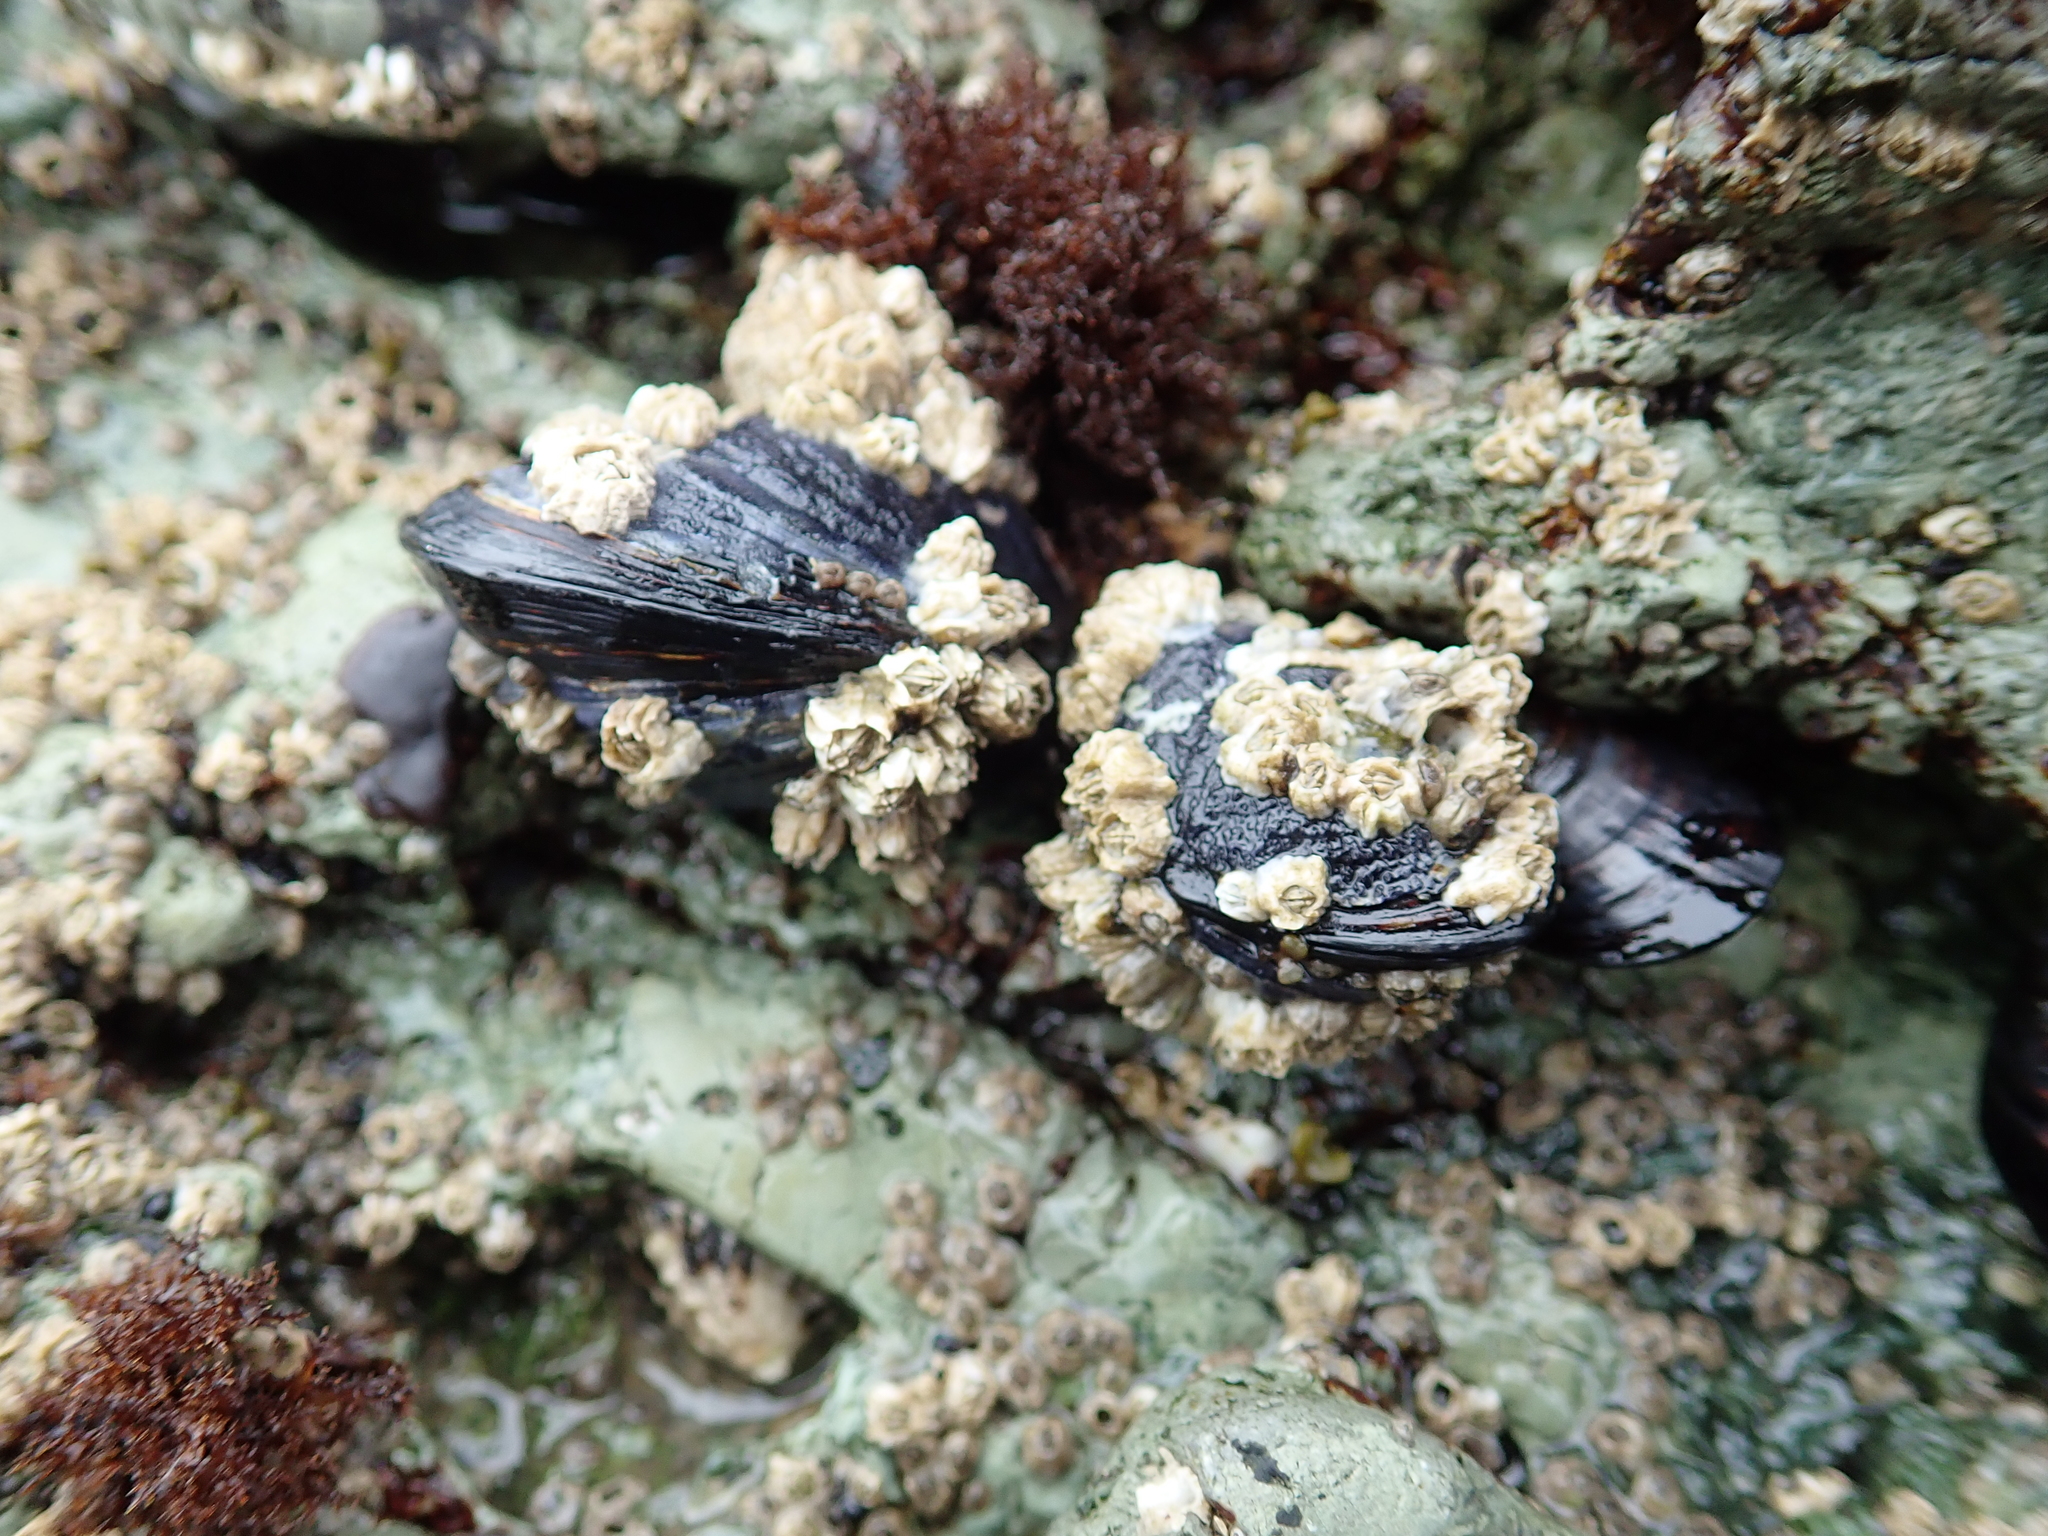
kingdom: Animalia
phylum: Mollusca
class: Bivalvia
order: Mytilida
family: Mytilidae
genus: Mytilus
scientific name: Mytilus californianus
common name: California mussel
